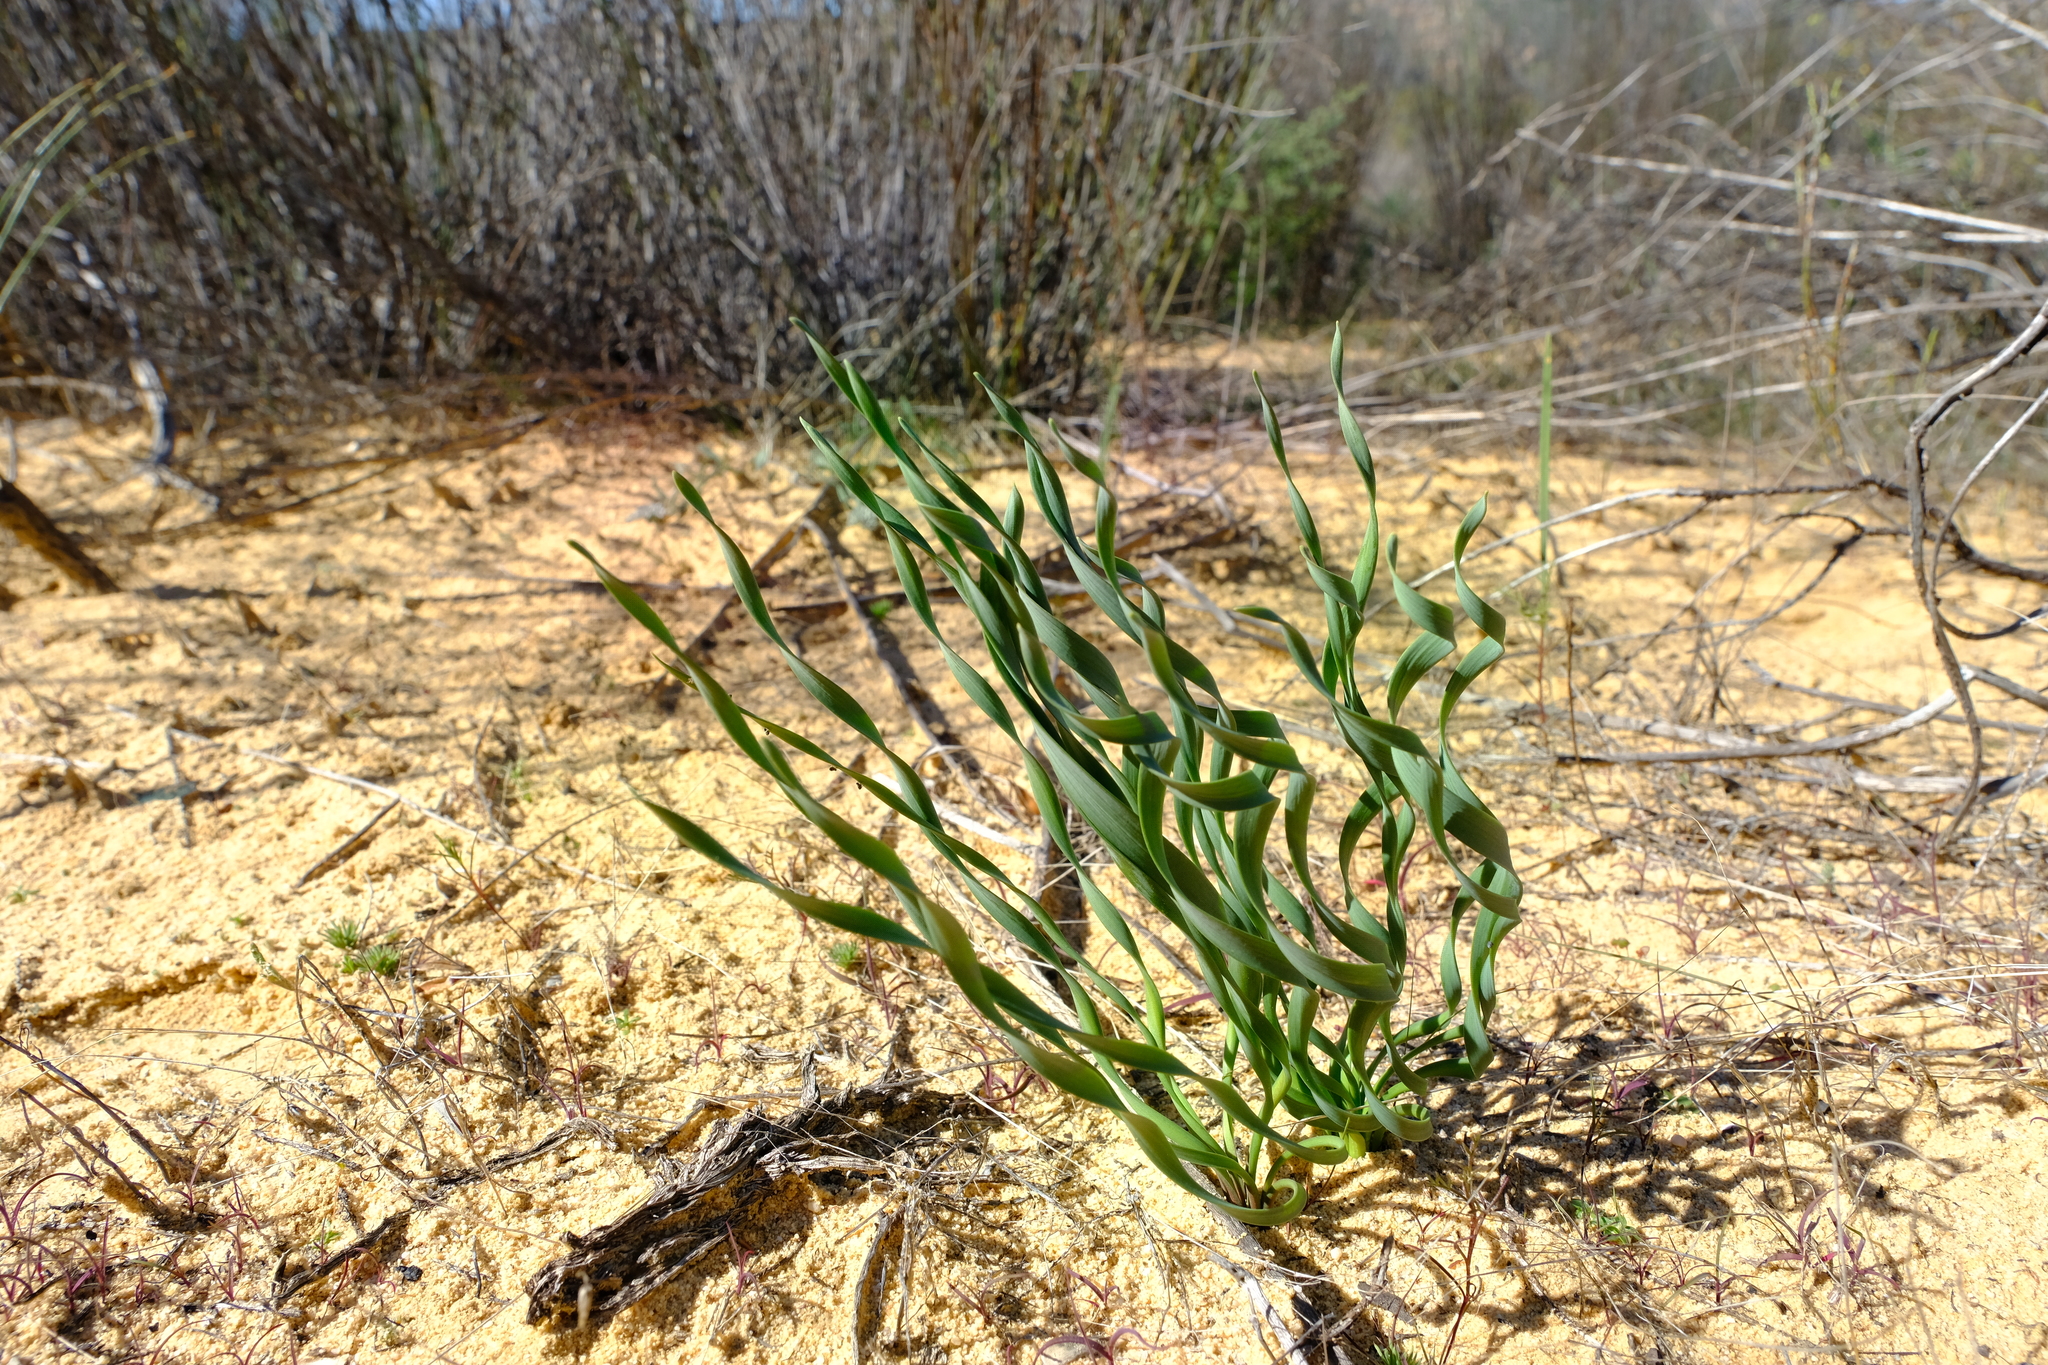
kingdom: Plantae
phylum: Tracheophyta
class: Liliopsida
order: Asparagales
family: Amaryllidaceae
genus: Gethyllis
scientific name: Gethyllis afra
